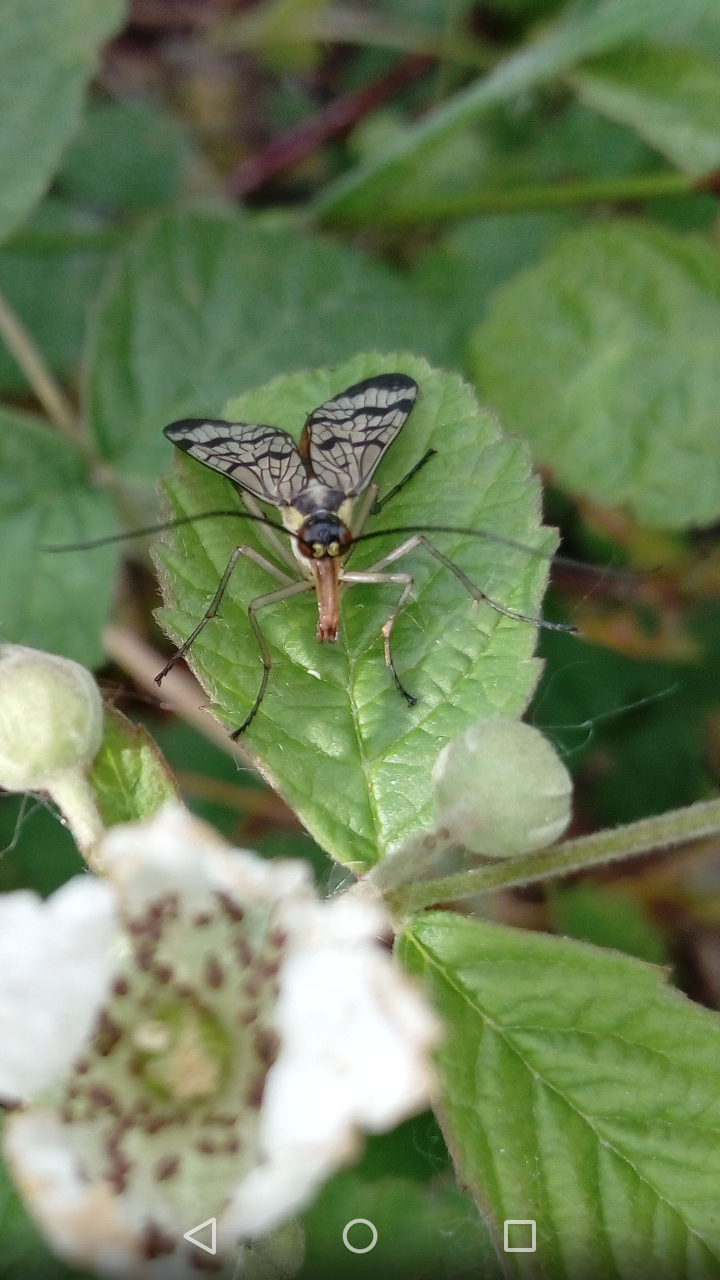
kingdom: Animalia
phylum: Arthropoda
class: Insecta
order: Mecoptera
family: Panorpidae
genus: Panorpa
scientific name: Panorpa communis
